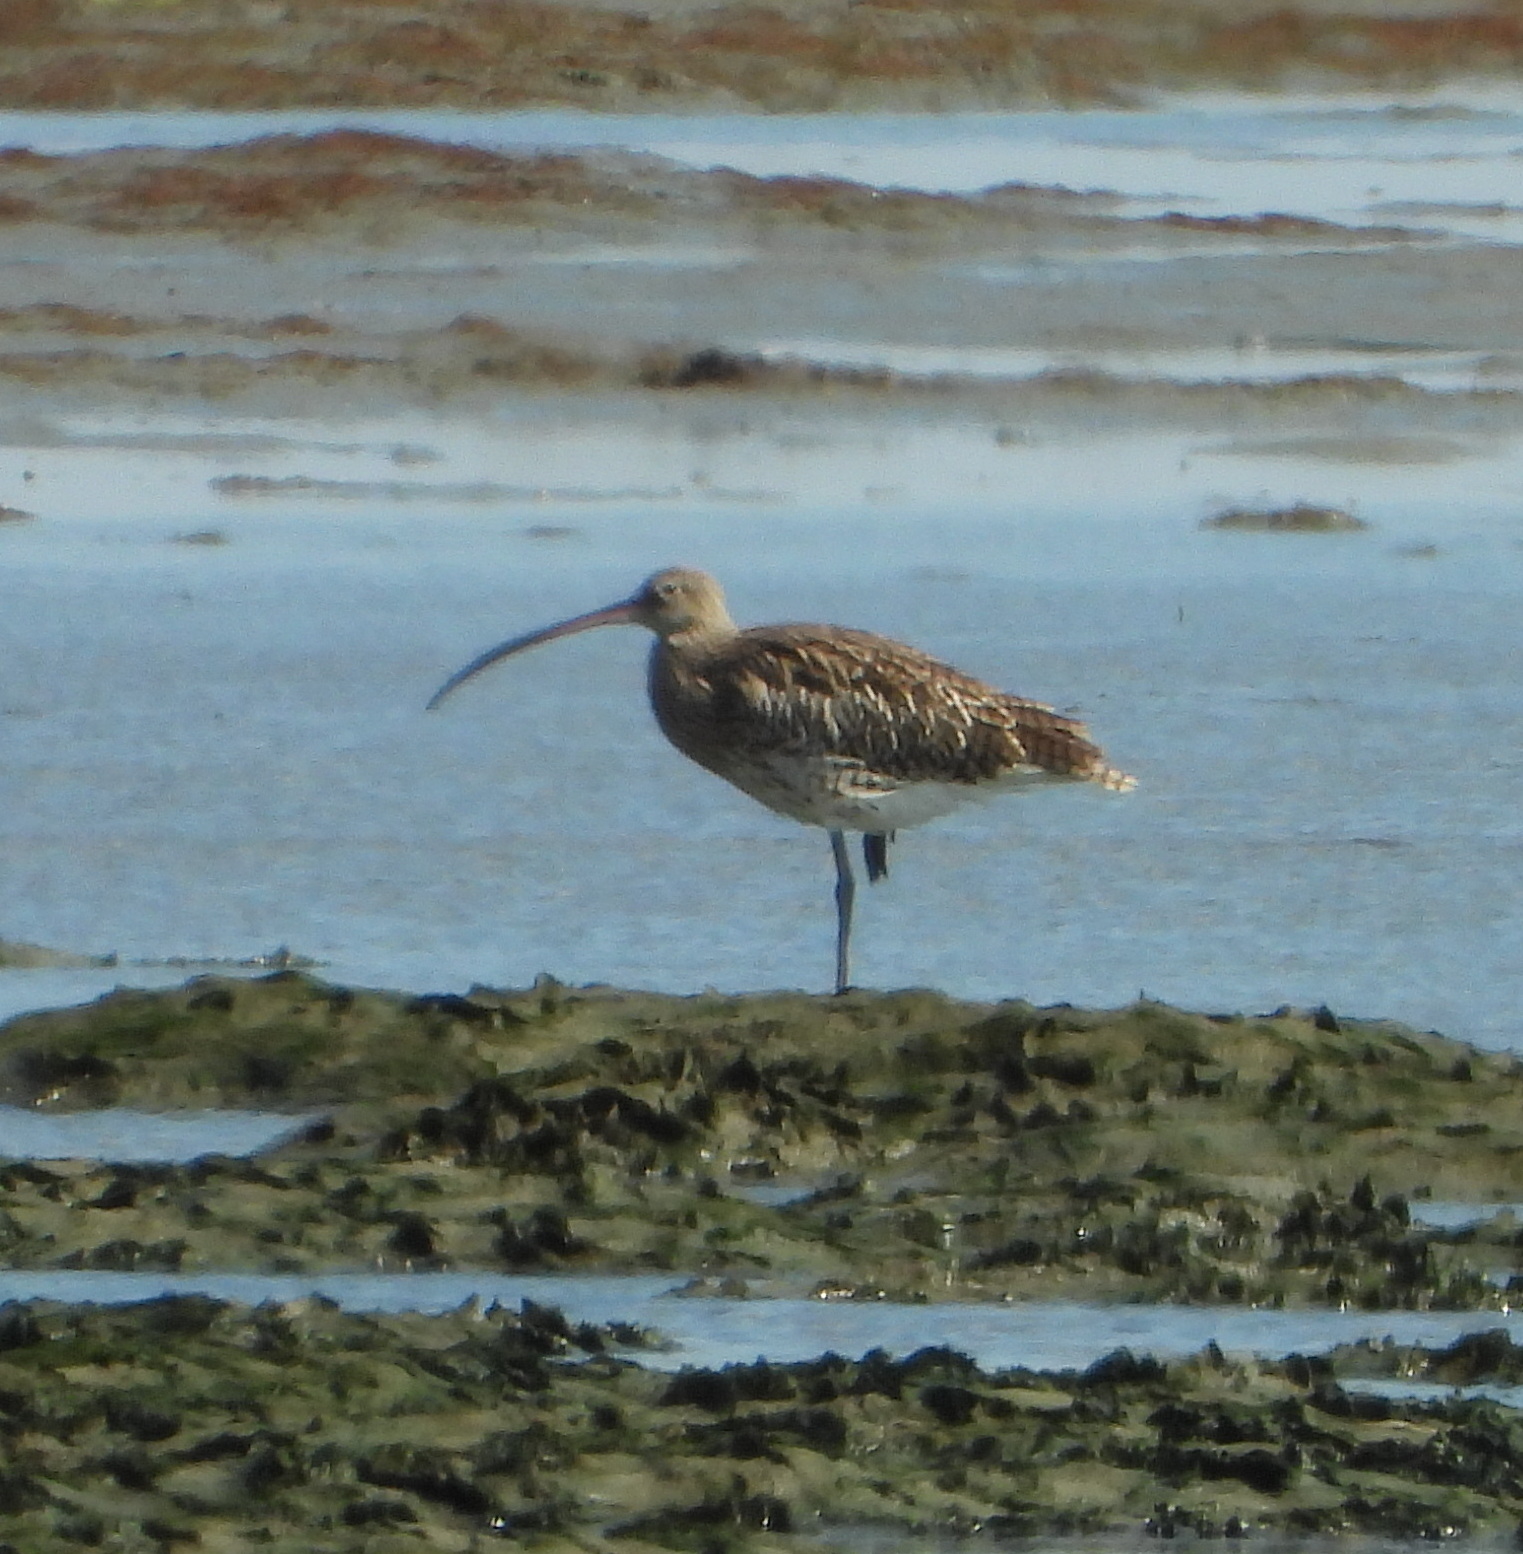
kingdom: Animalia
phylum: Chordata
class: Aves
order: Charadriiformes
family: Scolopacidae
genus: Numenius
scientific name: Numenius arquata
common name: Eurasian curlew
